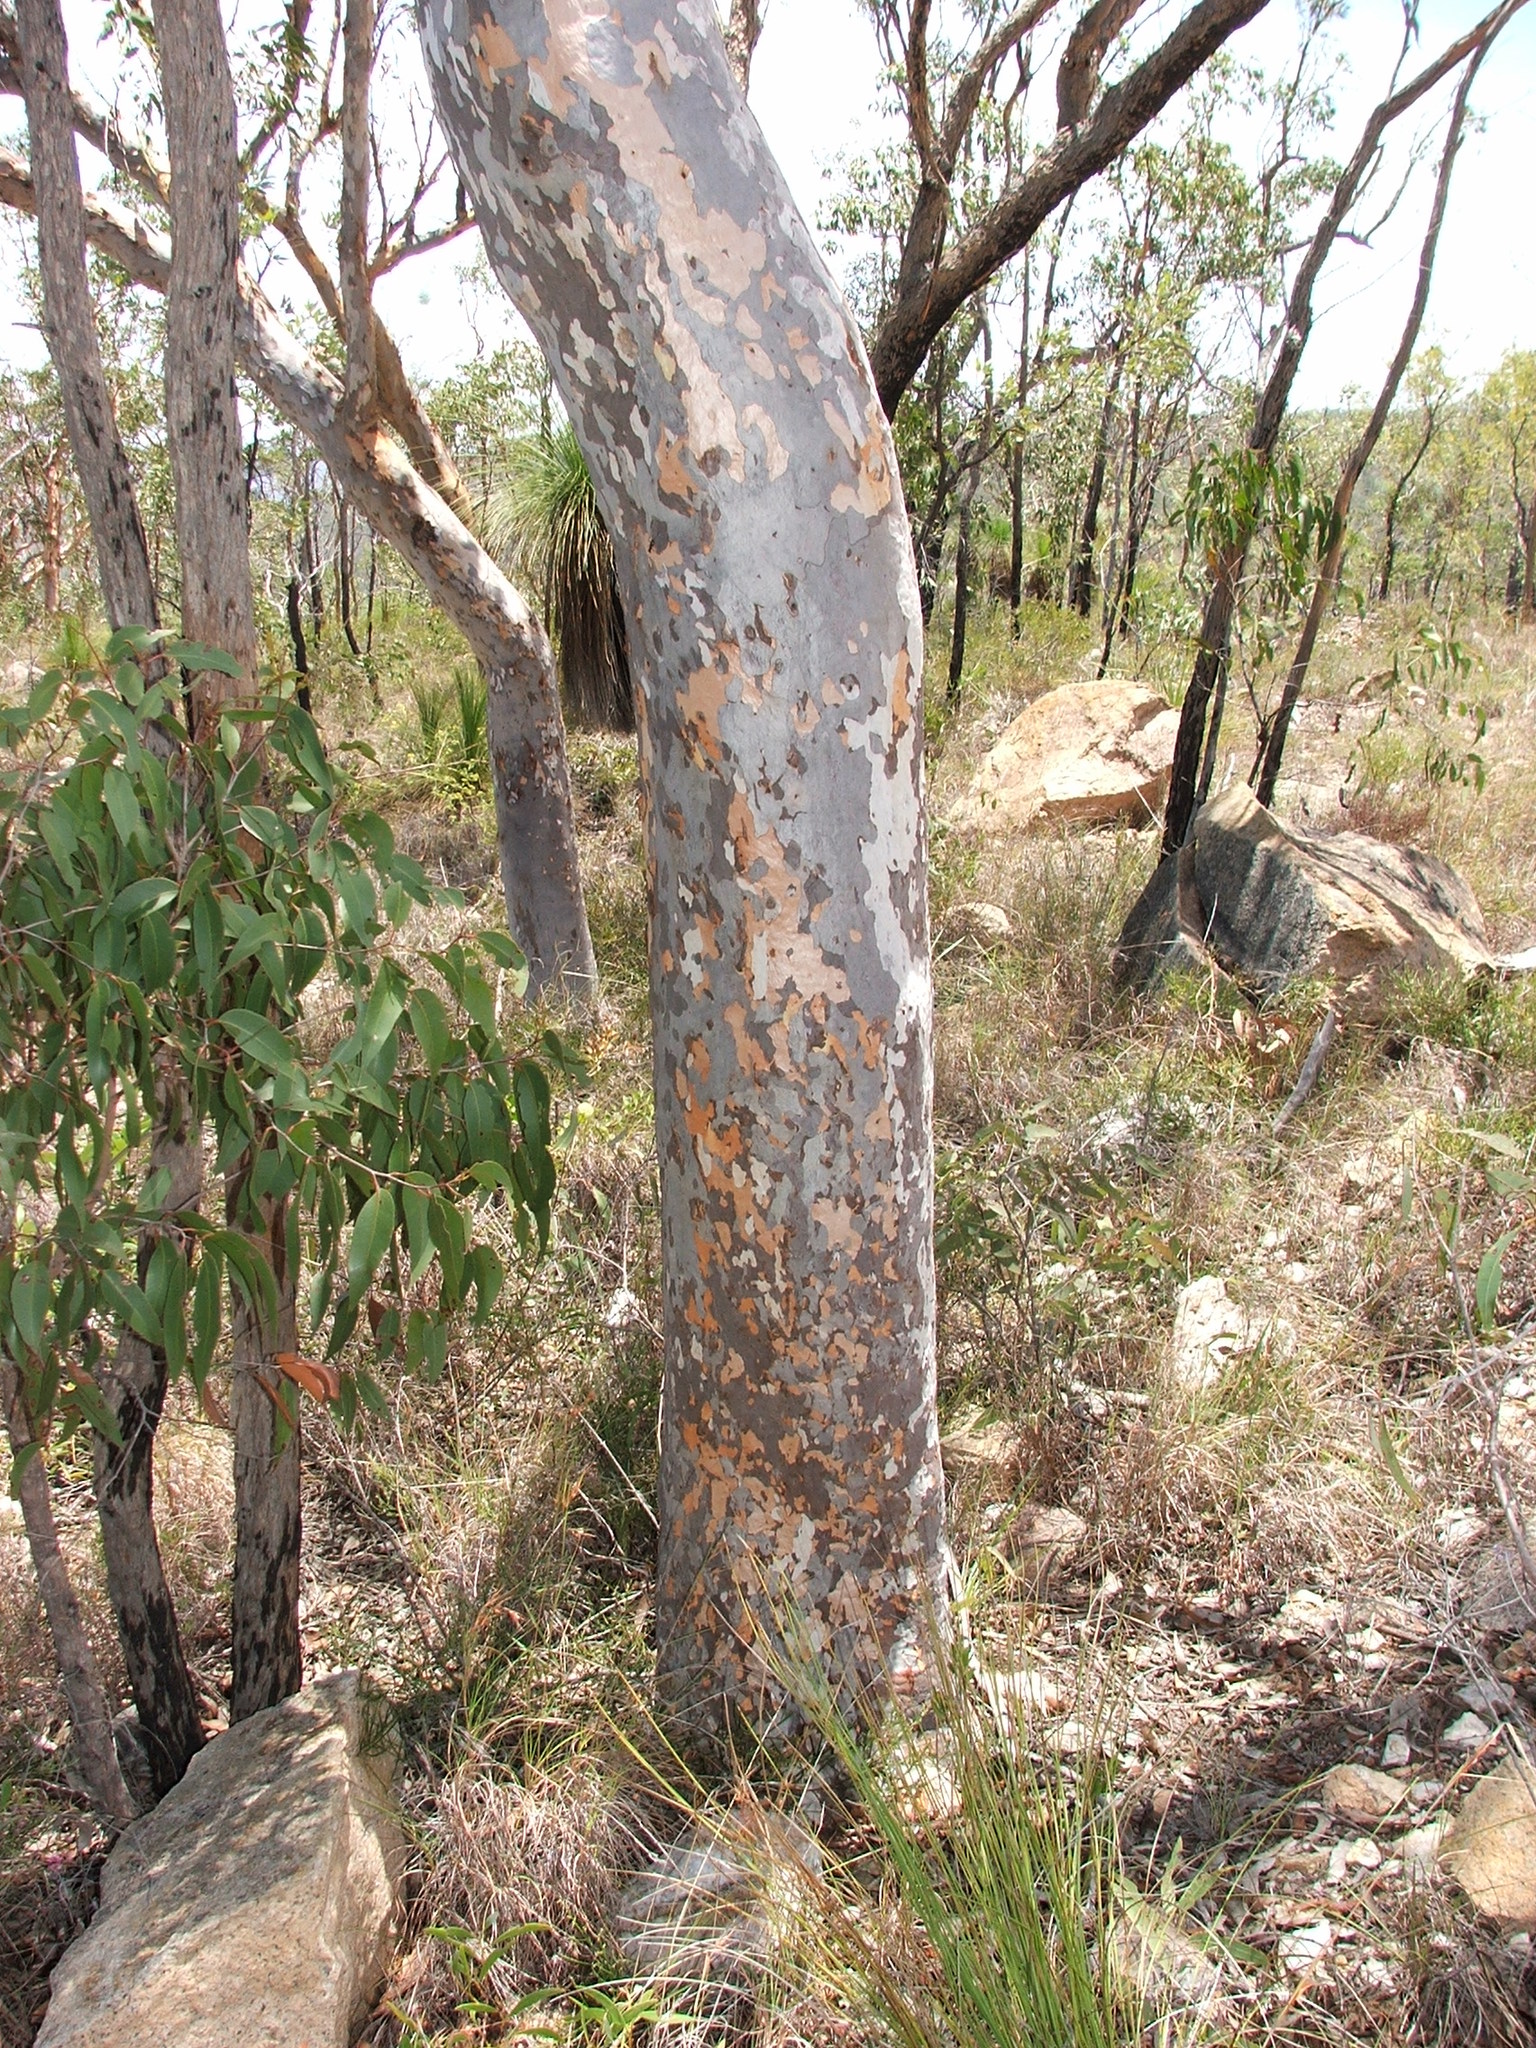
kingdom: Plantae
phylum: Tracheophyta
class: Magnoliopsida
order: Myrtales
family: Myrtaceae
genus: Eucalyptus
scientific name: Eucalyptus
